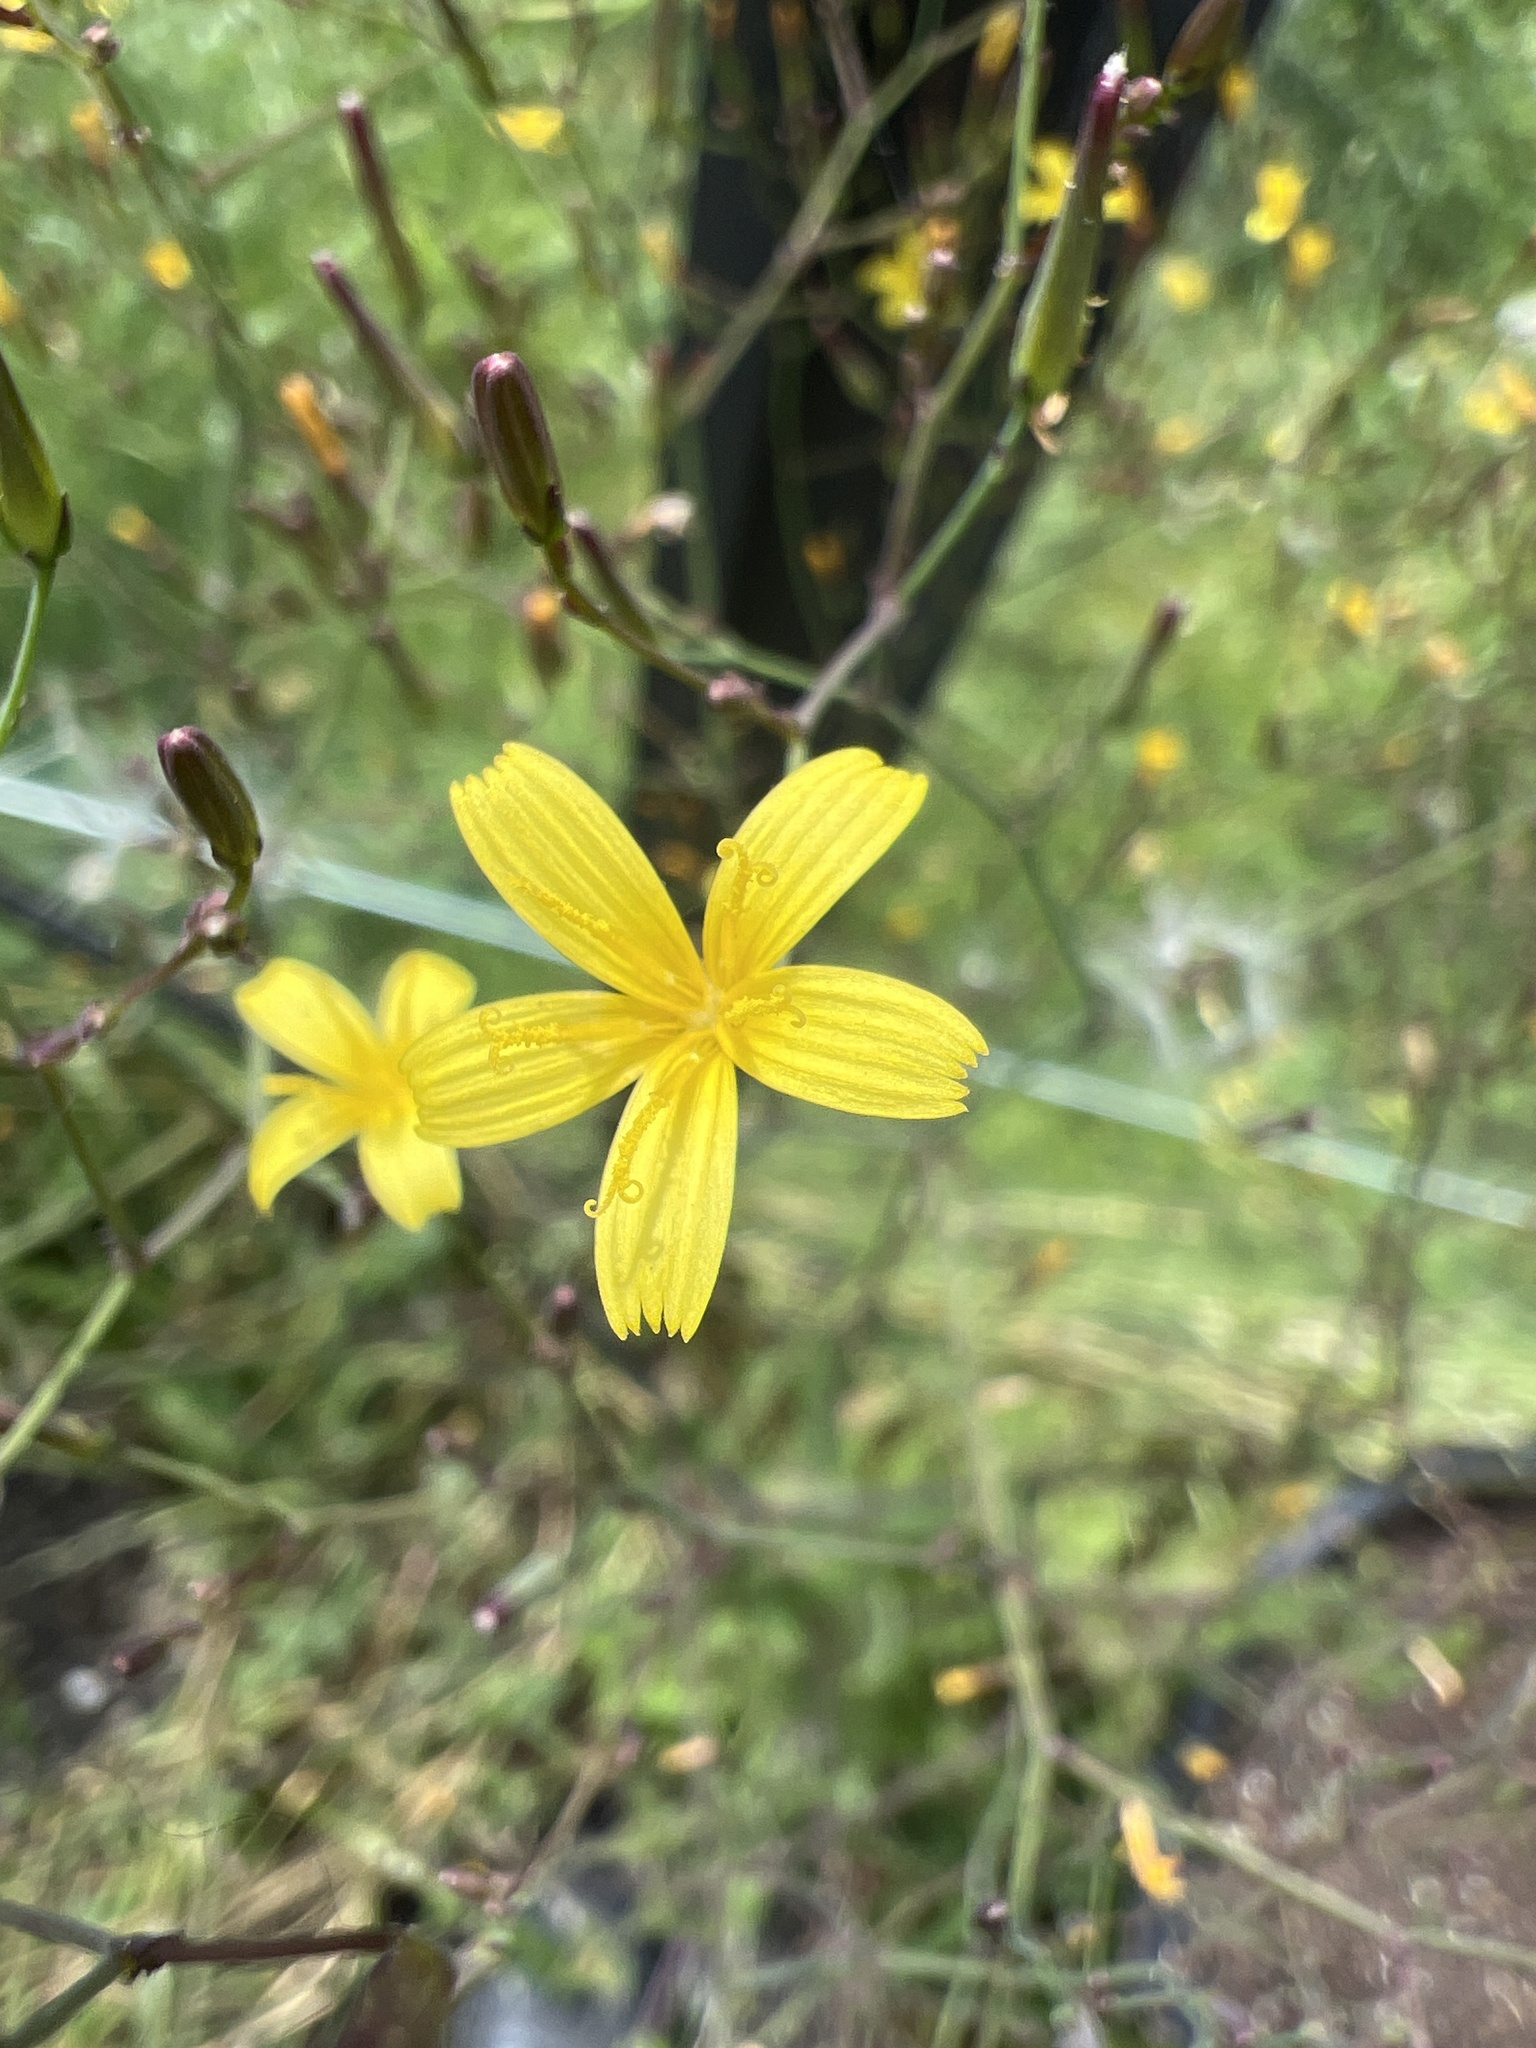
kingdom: Plantae
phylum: Tracheophyta
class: Magnoliopsida
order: Asterales
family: Asteraceae
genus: Mycelis
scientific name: Mycelis muralis
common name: Wall lettuce
